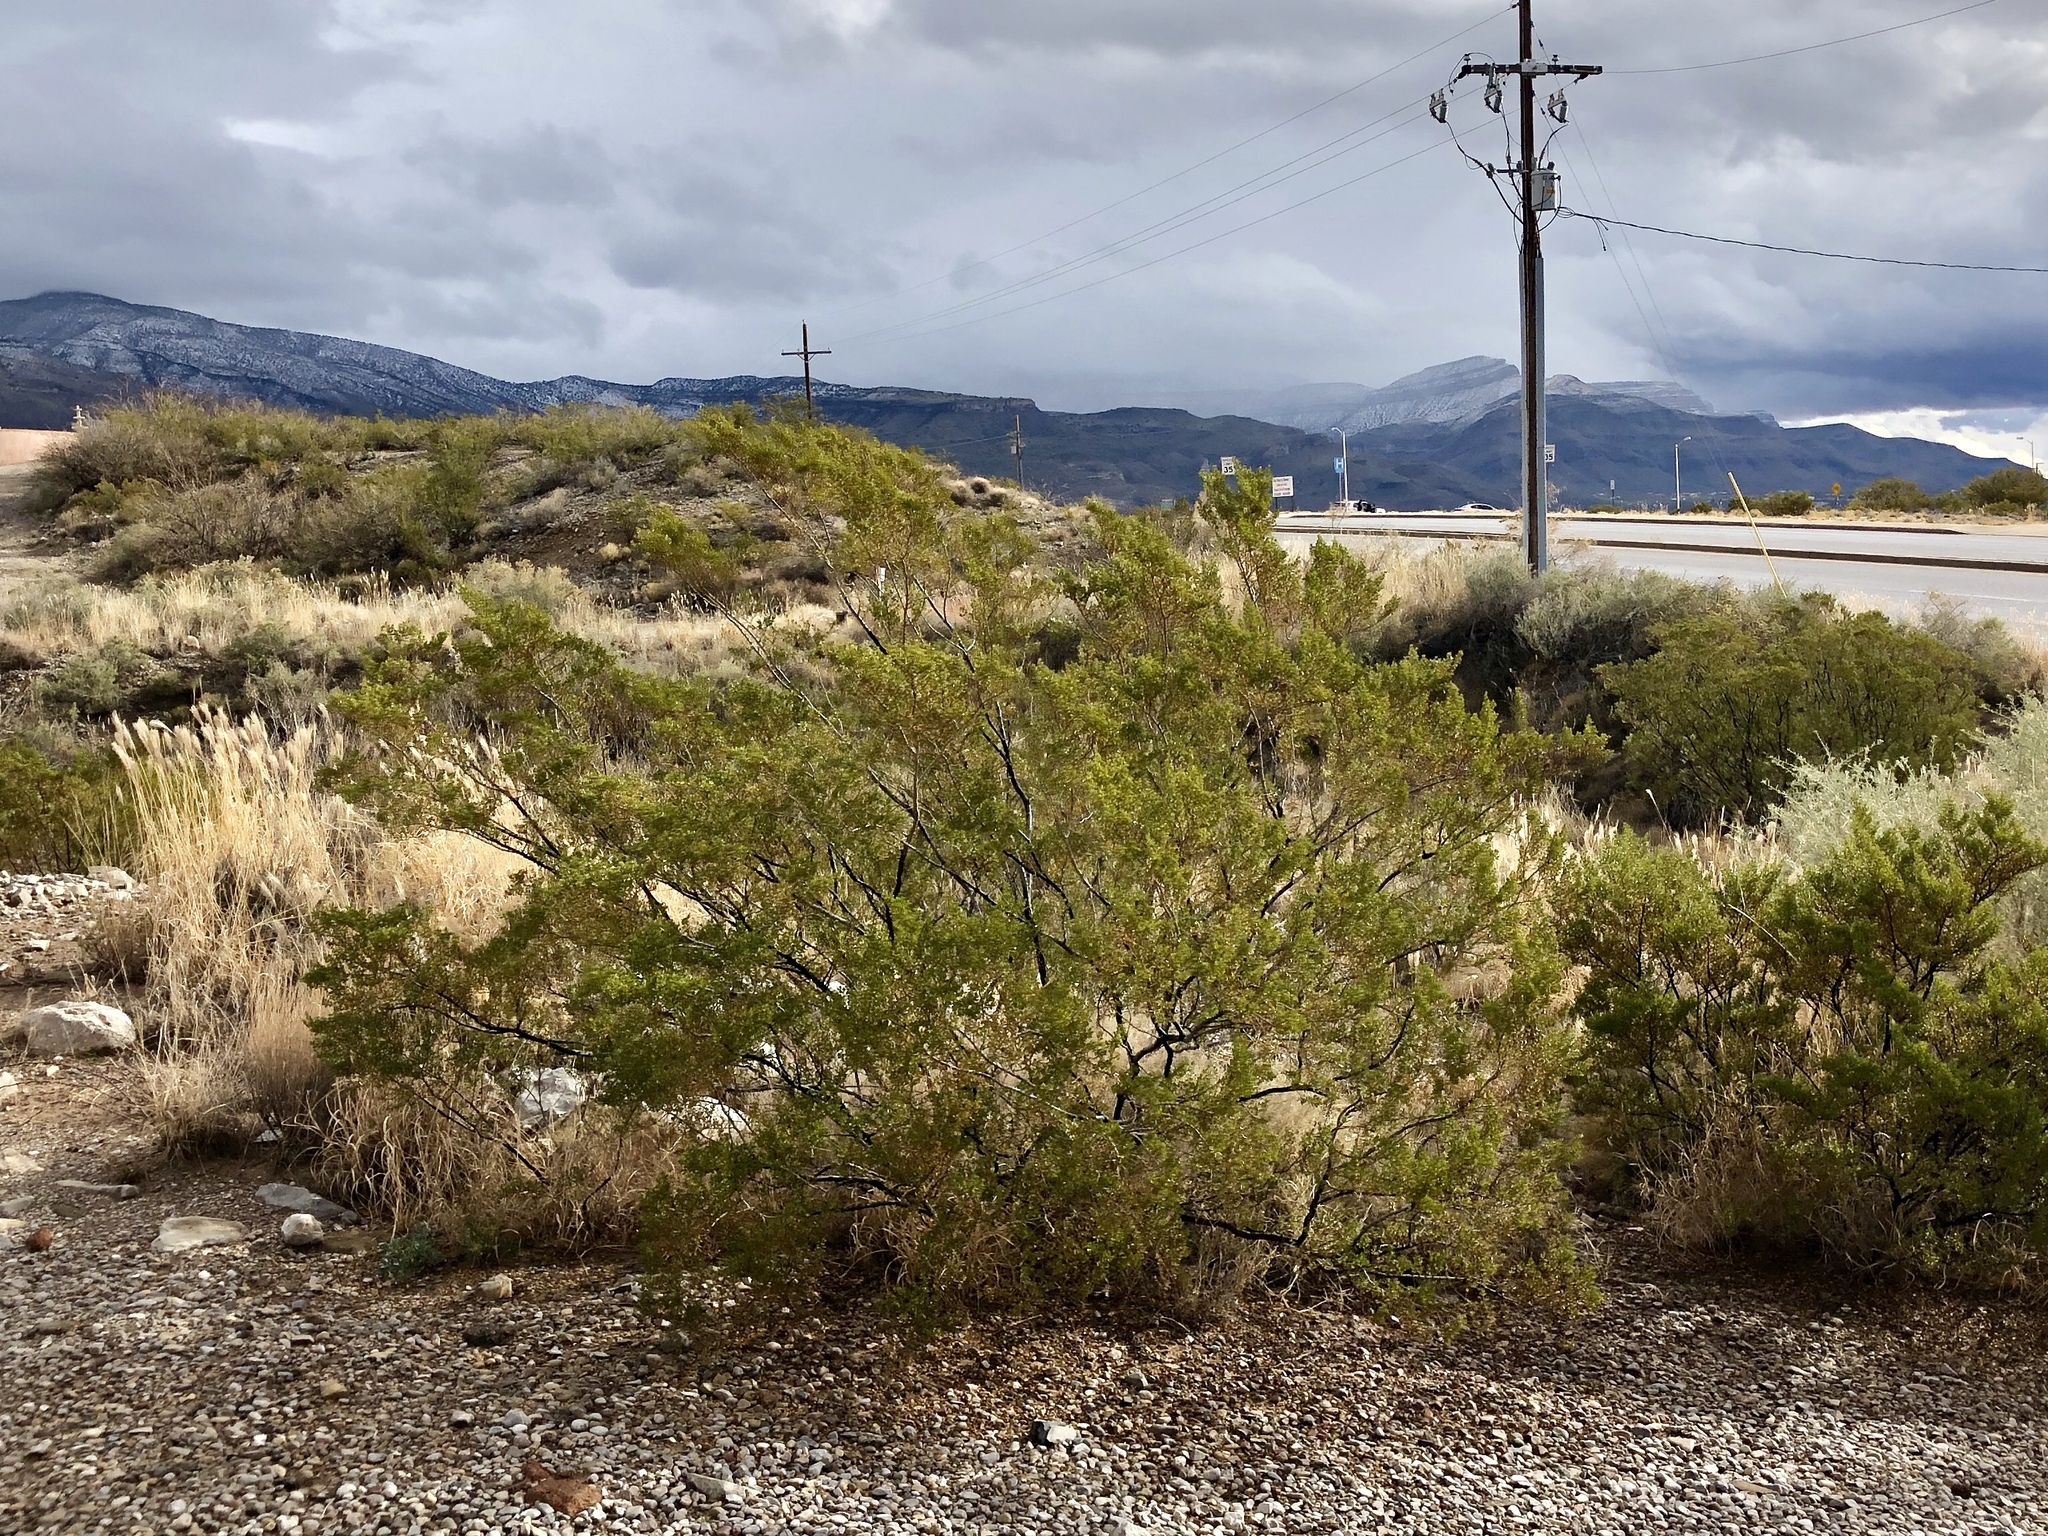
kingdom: Plantae
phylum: Tracheophyta
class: Magnoliopsida
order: Zygophyllales
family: Zygophyllaceae
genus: Larrea
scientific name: Larrea tridentata
